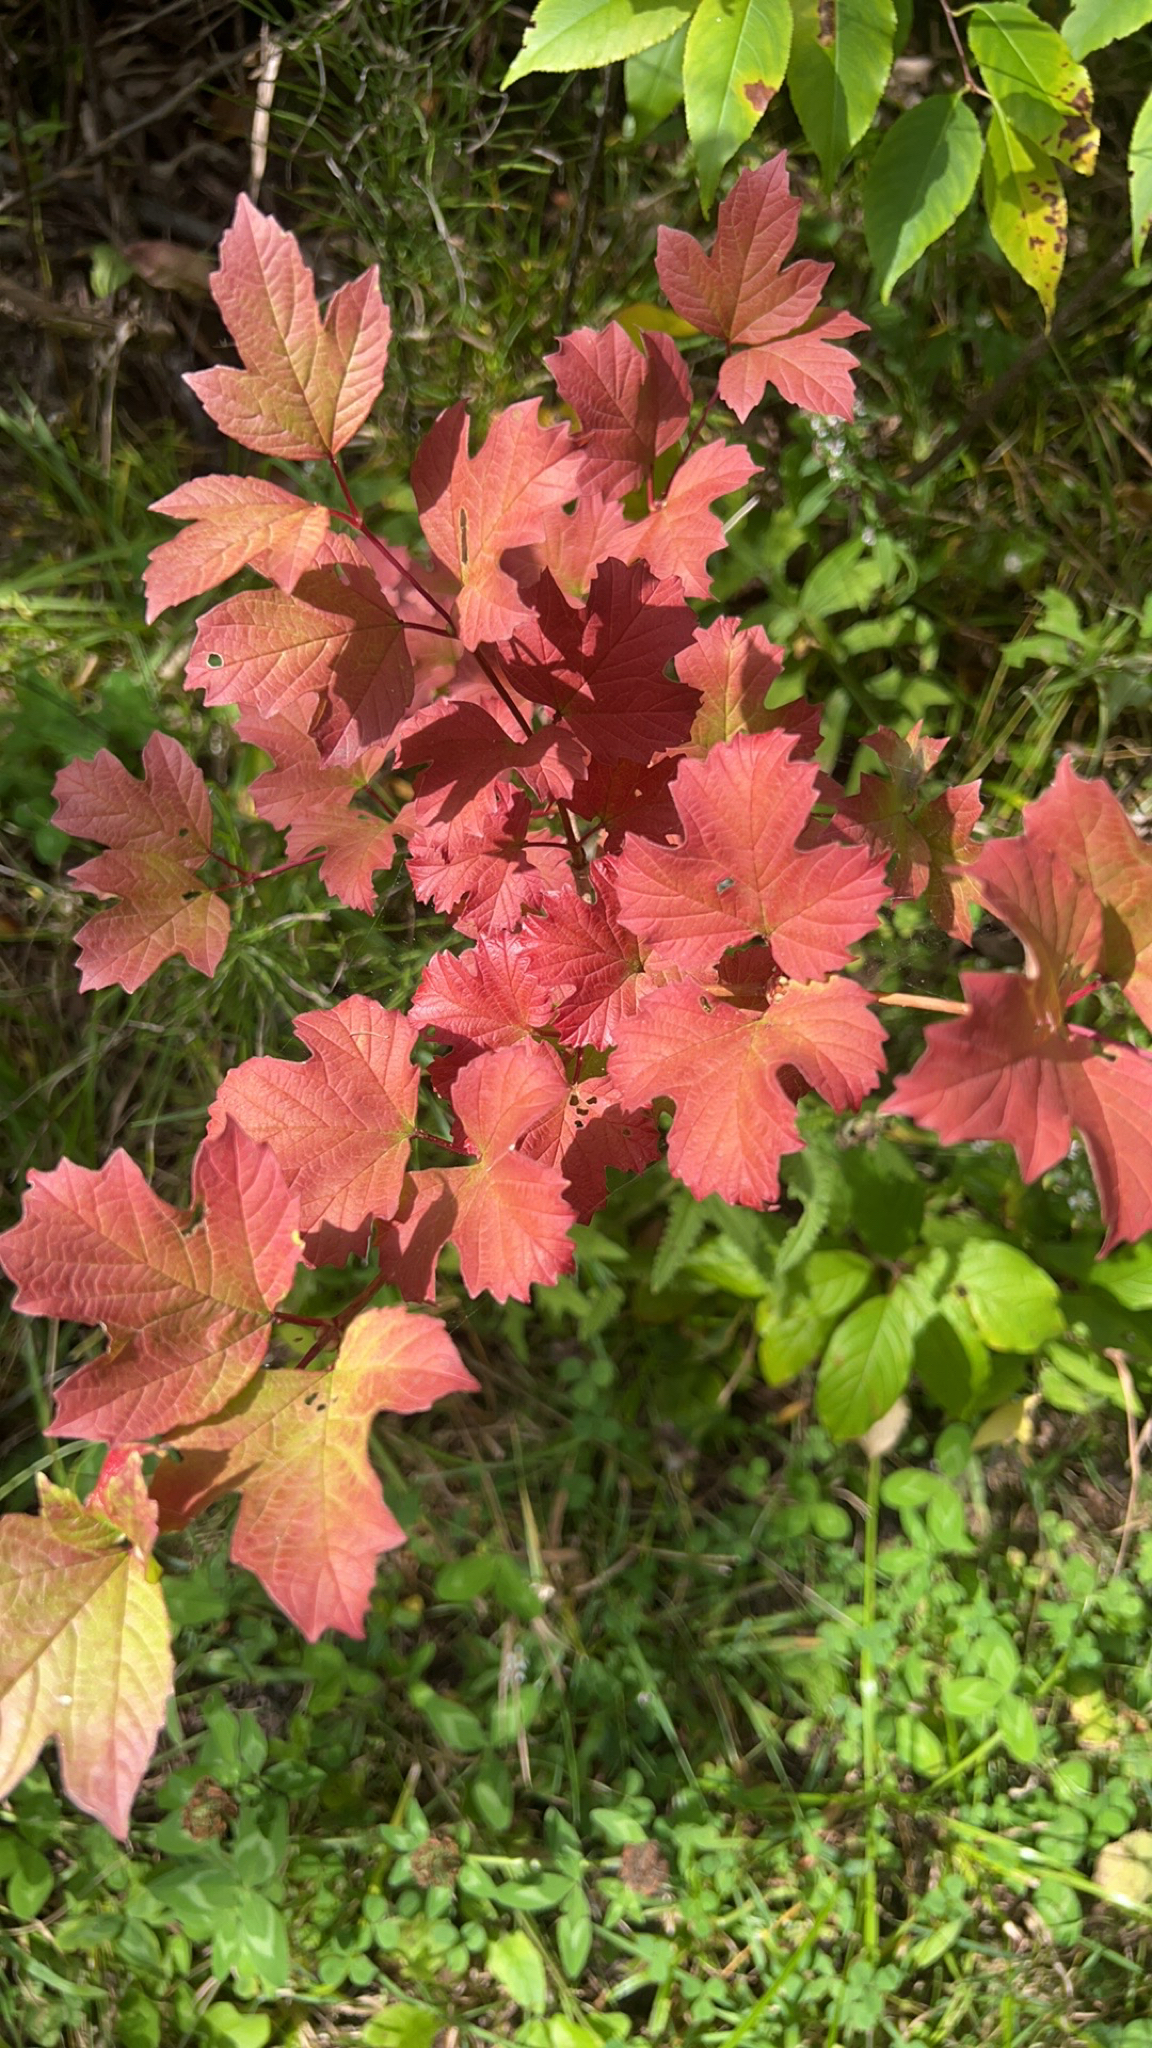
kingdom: Plantae
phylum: Tracheophyta
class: Magnoliopsida
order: Dipsacales
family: Viburnaceae
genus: Viburnum
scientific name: Viburnum opulus
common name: Guelder-rose
